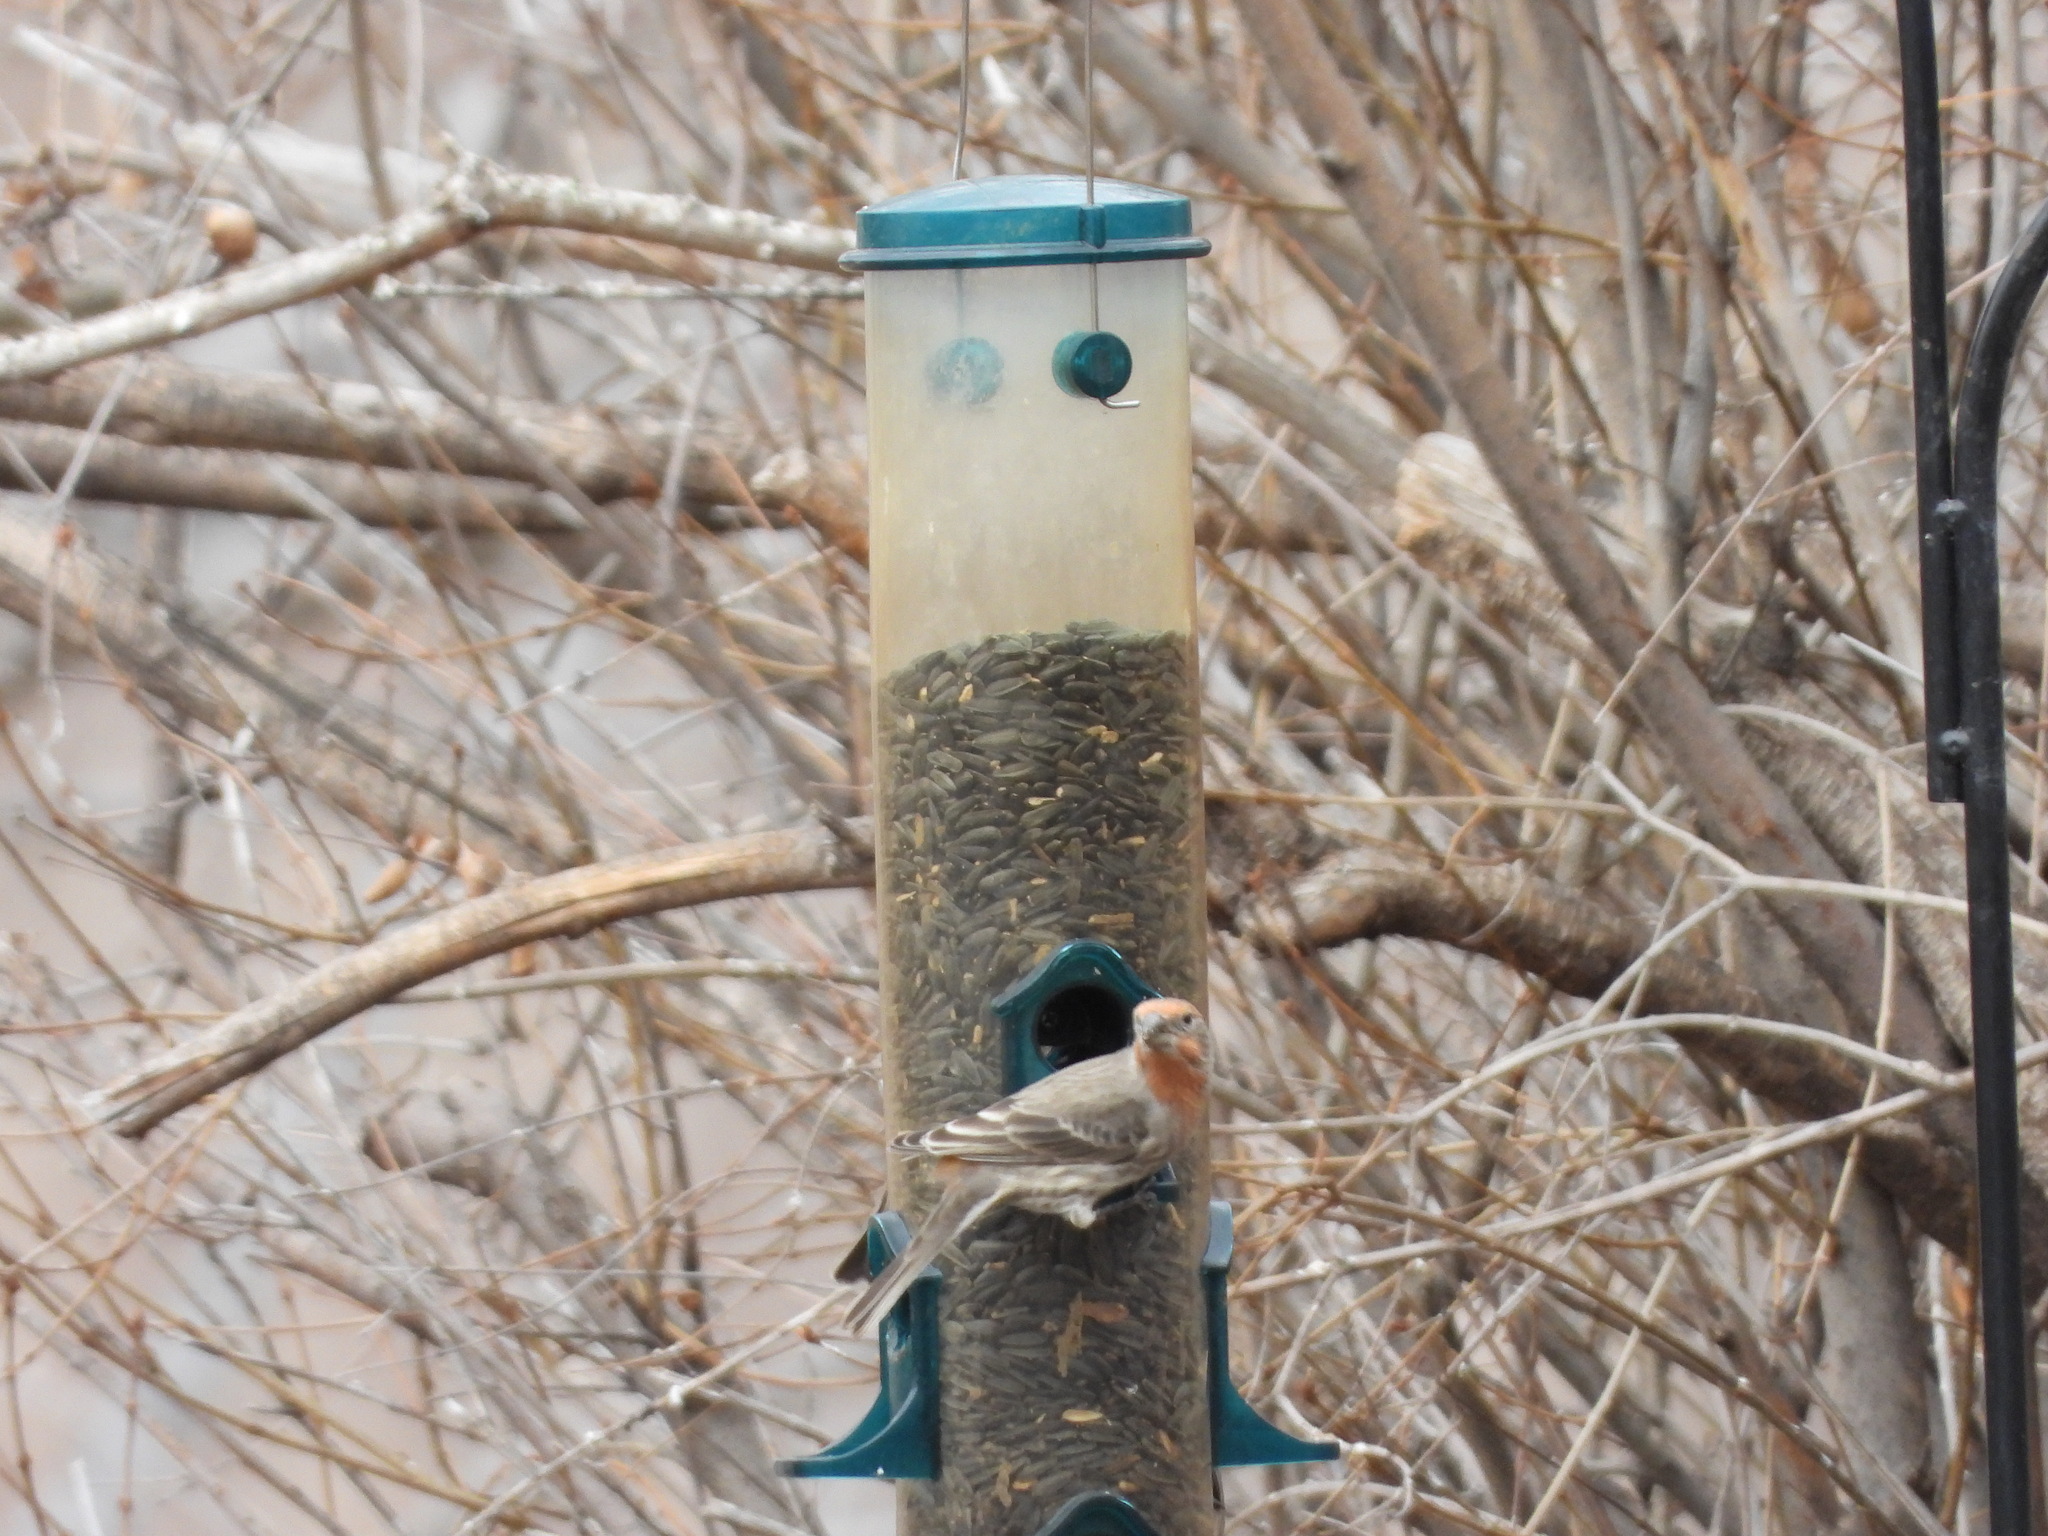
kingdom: Animalia
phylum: Chordata
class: Aves
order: Passeriformes
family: Fringillidae
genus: Haemorhous
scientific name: Haemorhous mexicanus
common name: House finch
